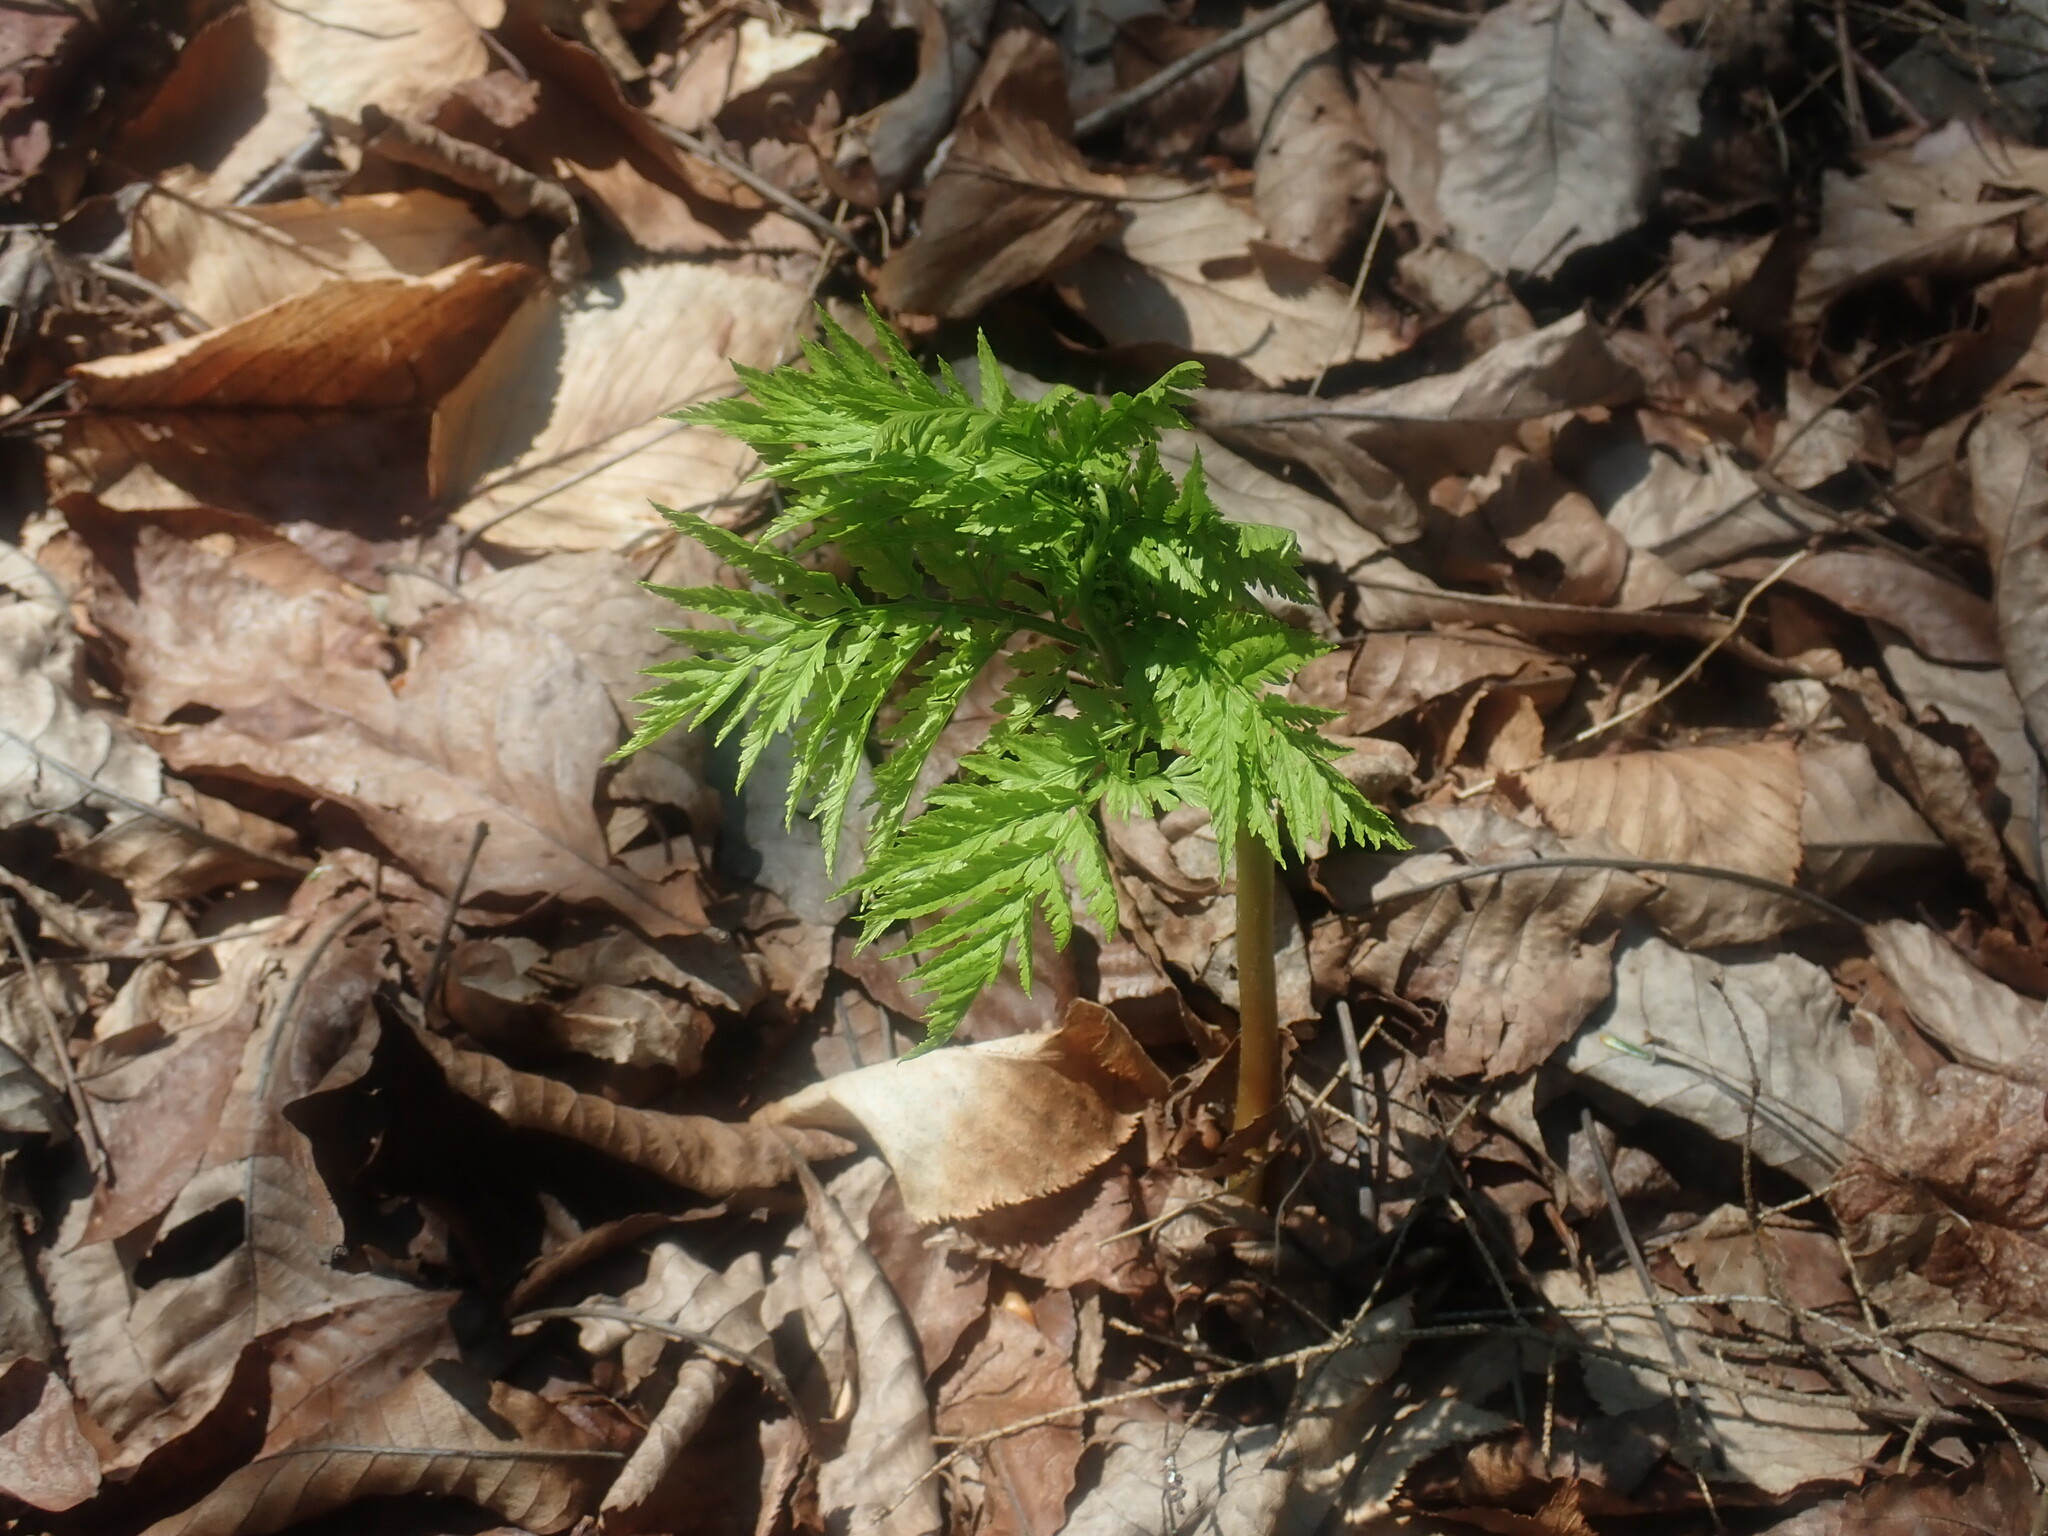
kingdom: Plantae
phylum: Tracheophyta
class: Polypodiopsida
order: Ophioglossales
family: Ophioglossaceae
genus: Botrypus
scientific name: Botrypus virginianus
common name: Common grapefern
